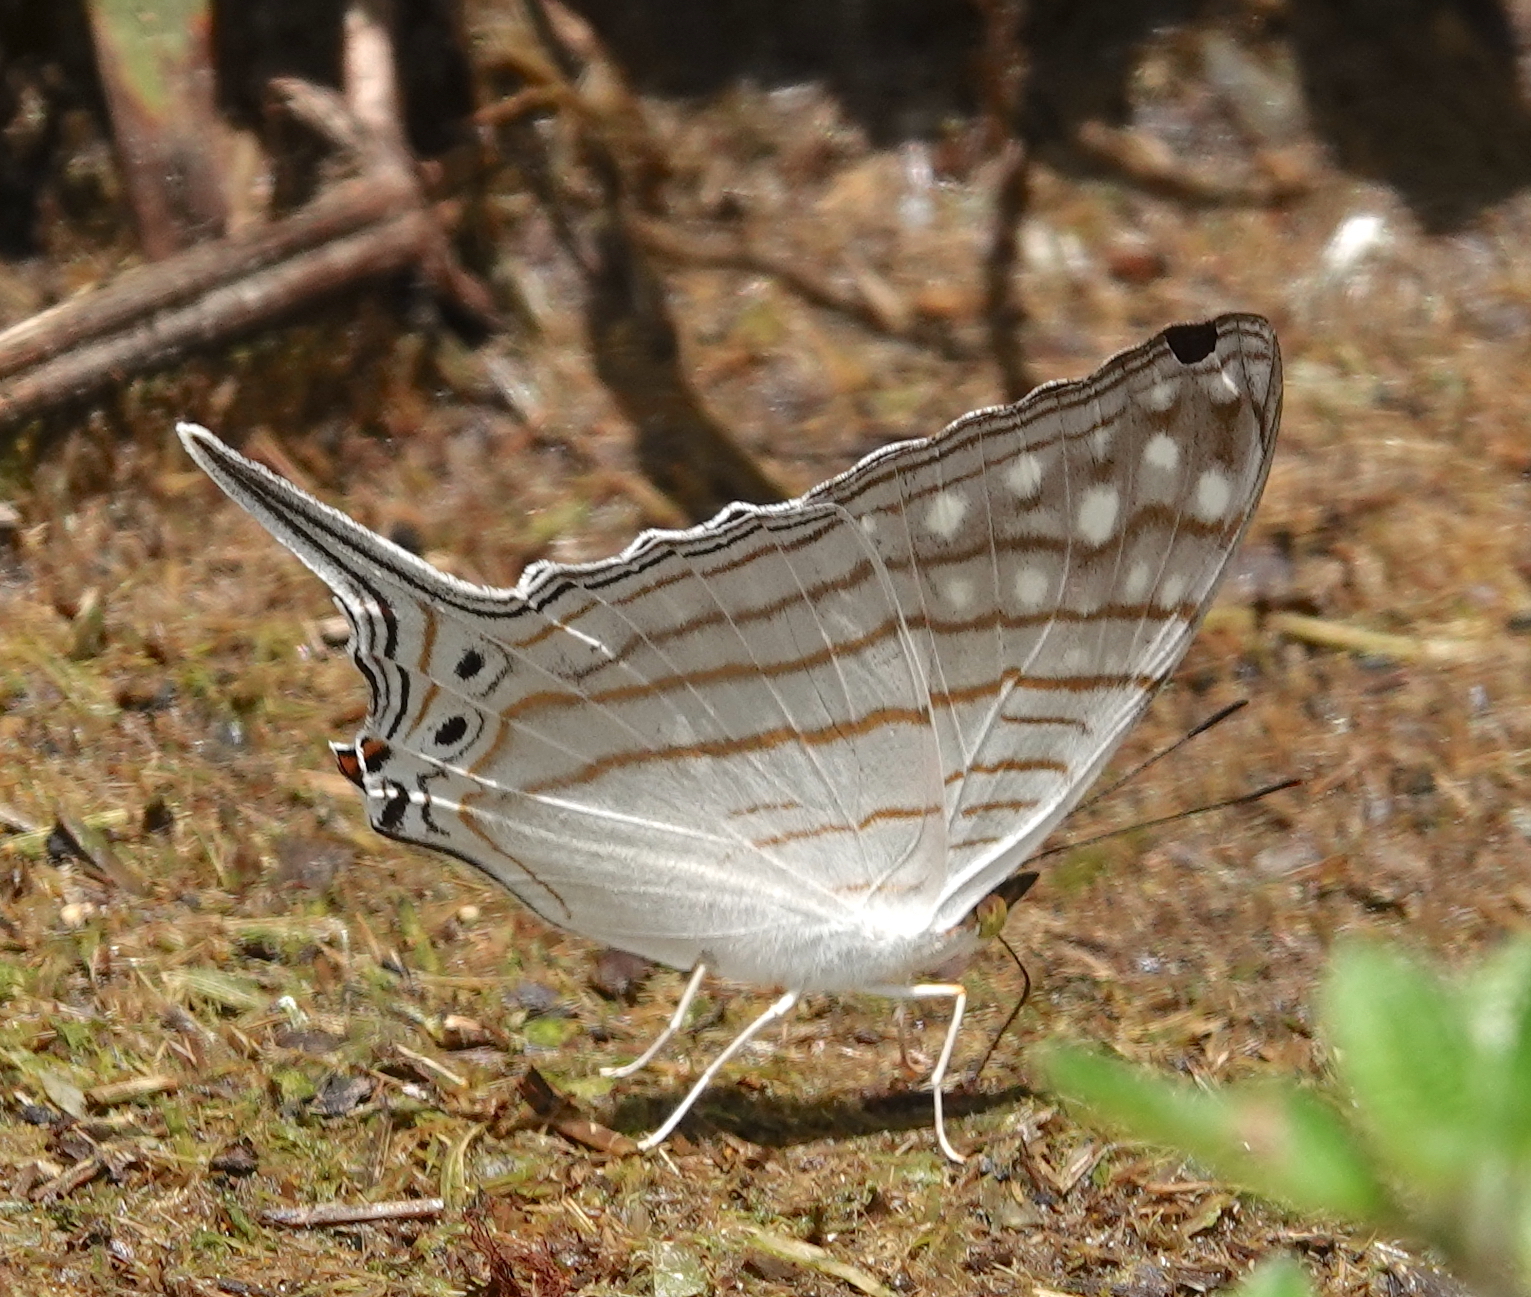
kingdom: Animalia
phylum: Arthropoda
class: Insecta
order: Lepidoptera
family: Nymphalidae
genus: Marpesia
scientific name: Marpesia merops
